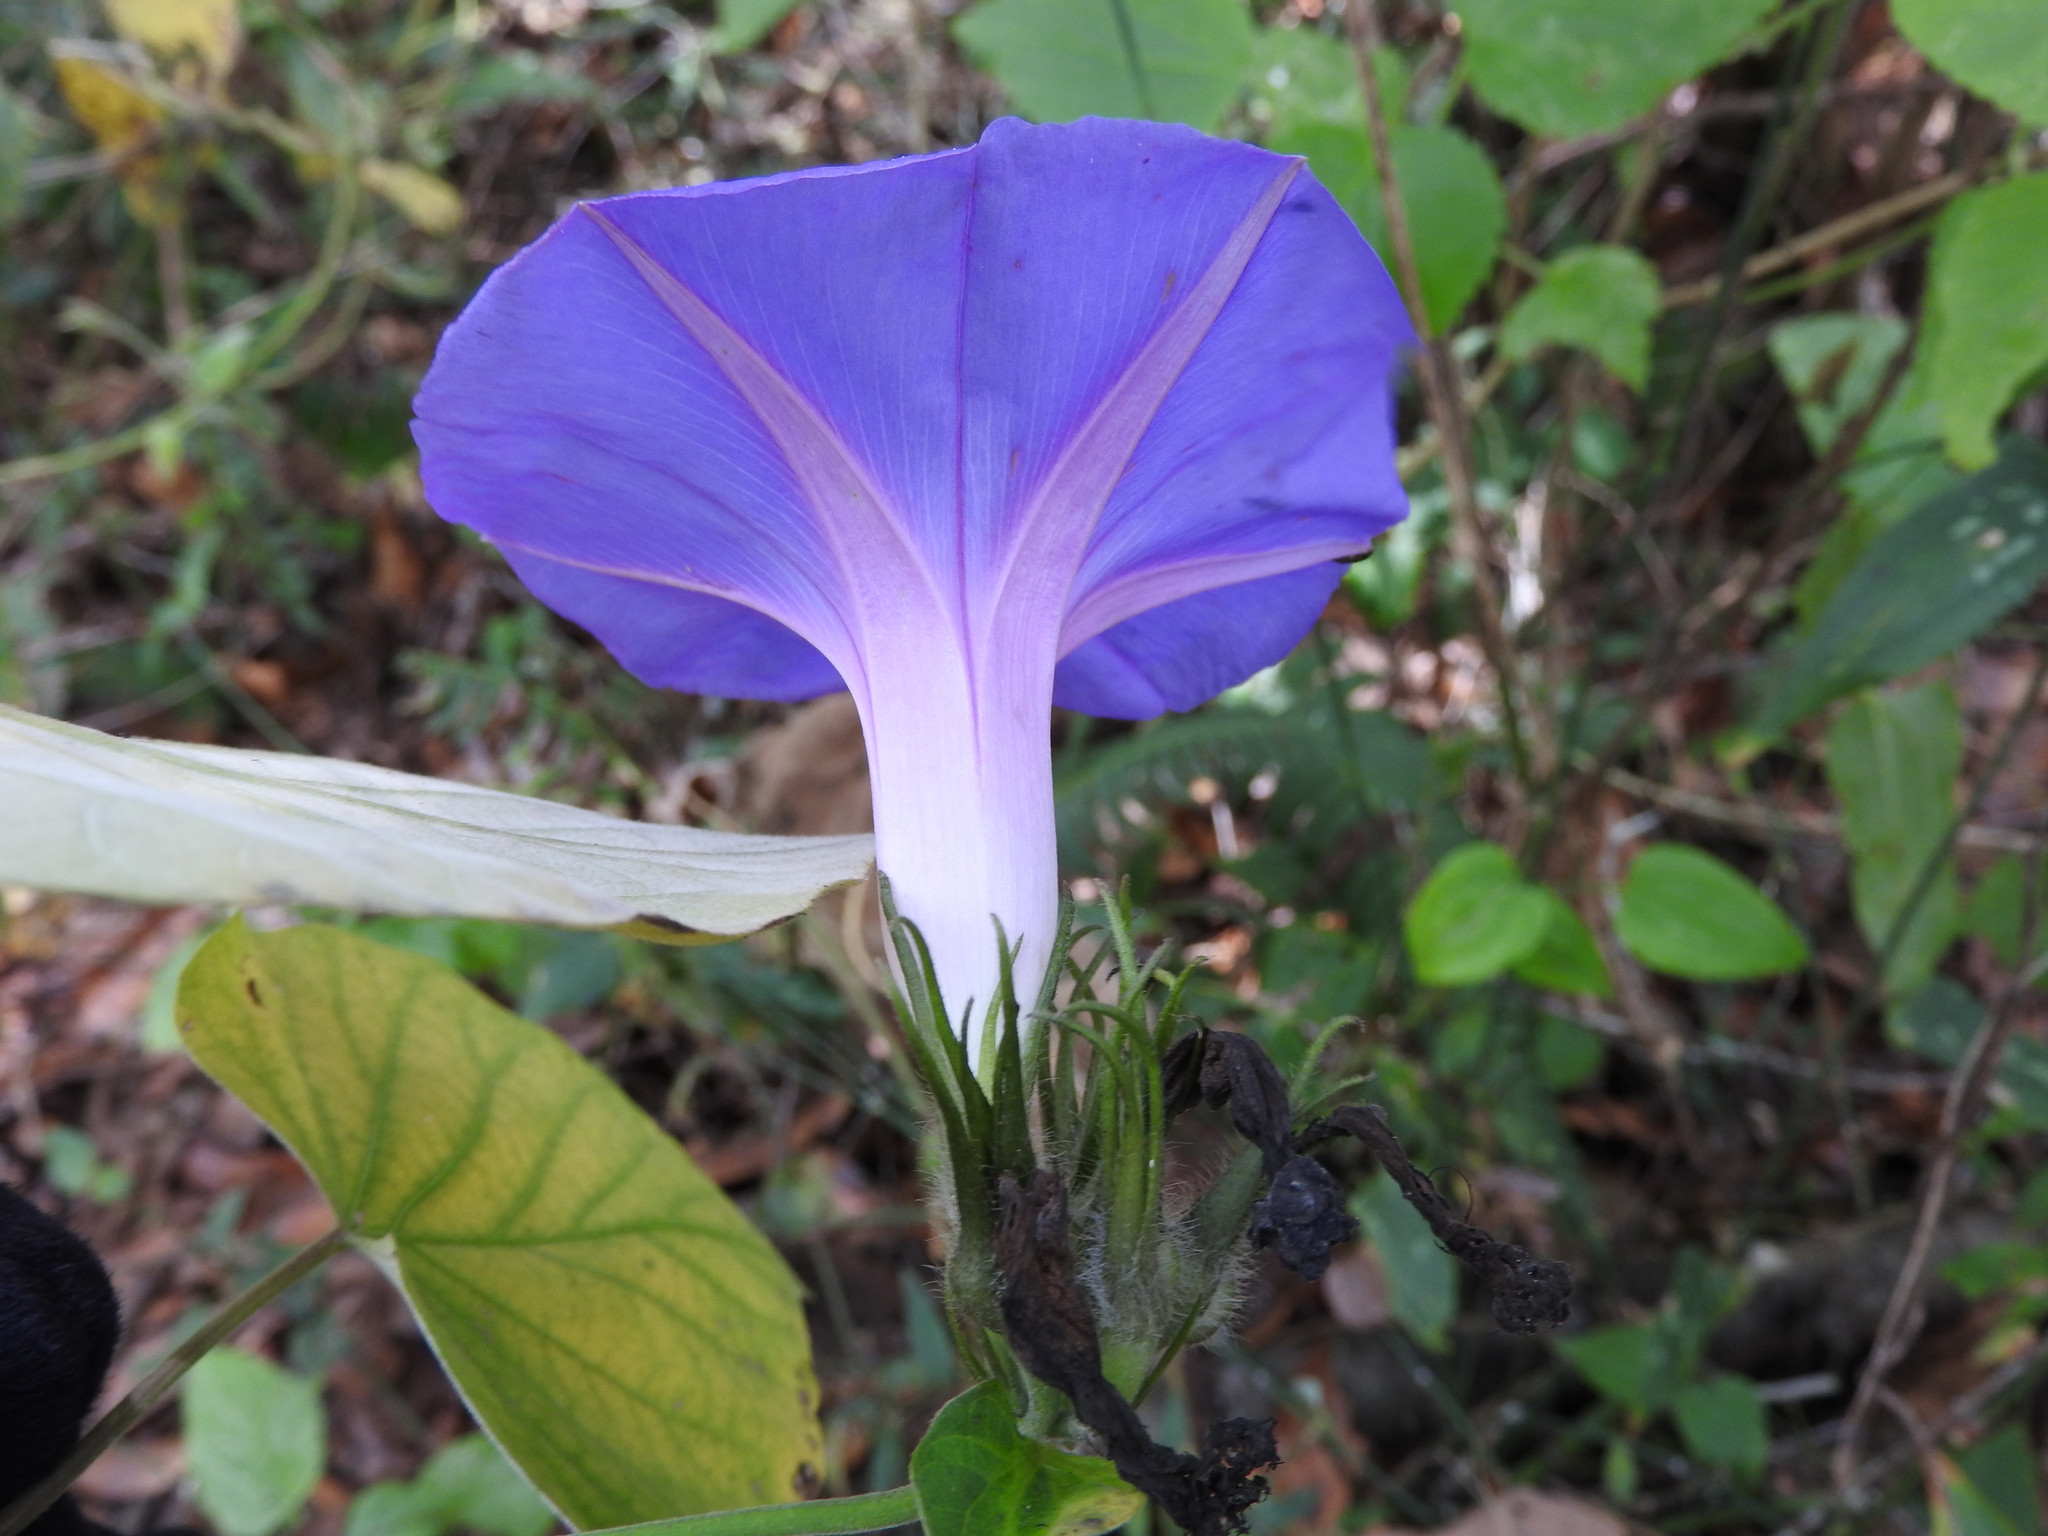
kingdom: Plantae
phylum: Tracheophyta
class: Magnoliopsida
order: Solanales
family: Convolvulaceae
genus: Ipomoea
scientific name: Ipomoea indica
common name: Blue dawnflower
